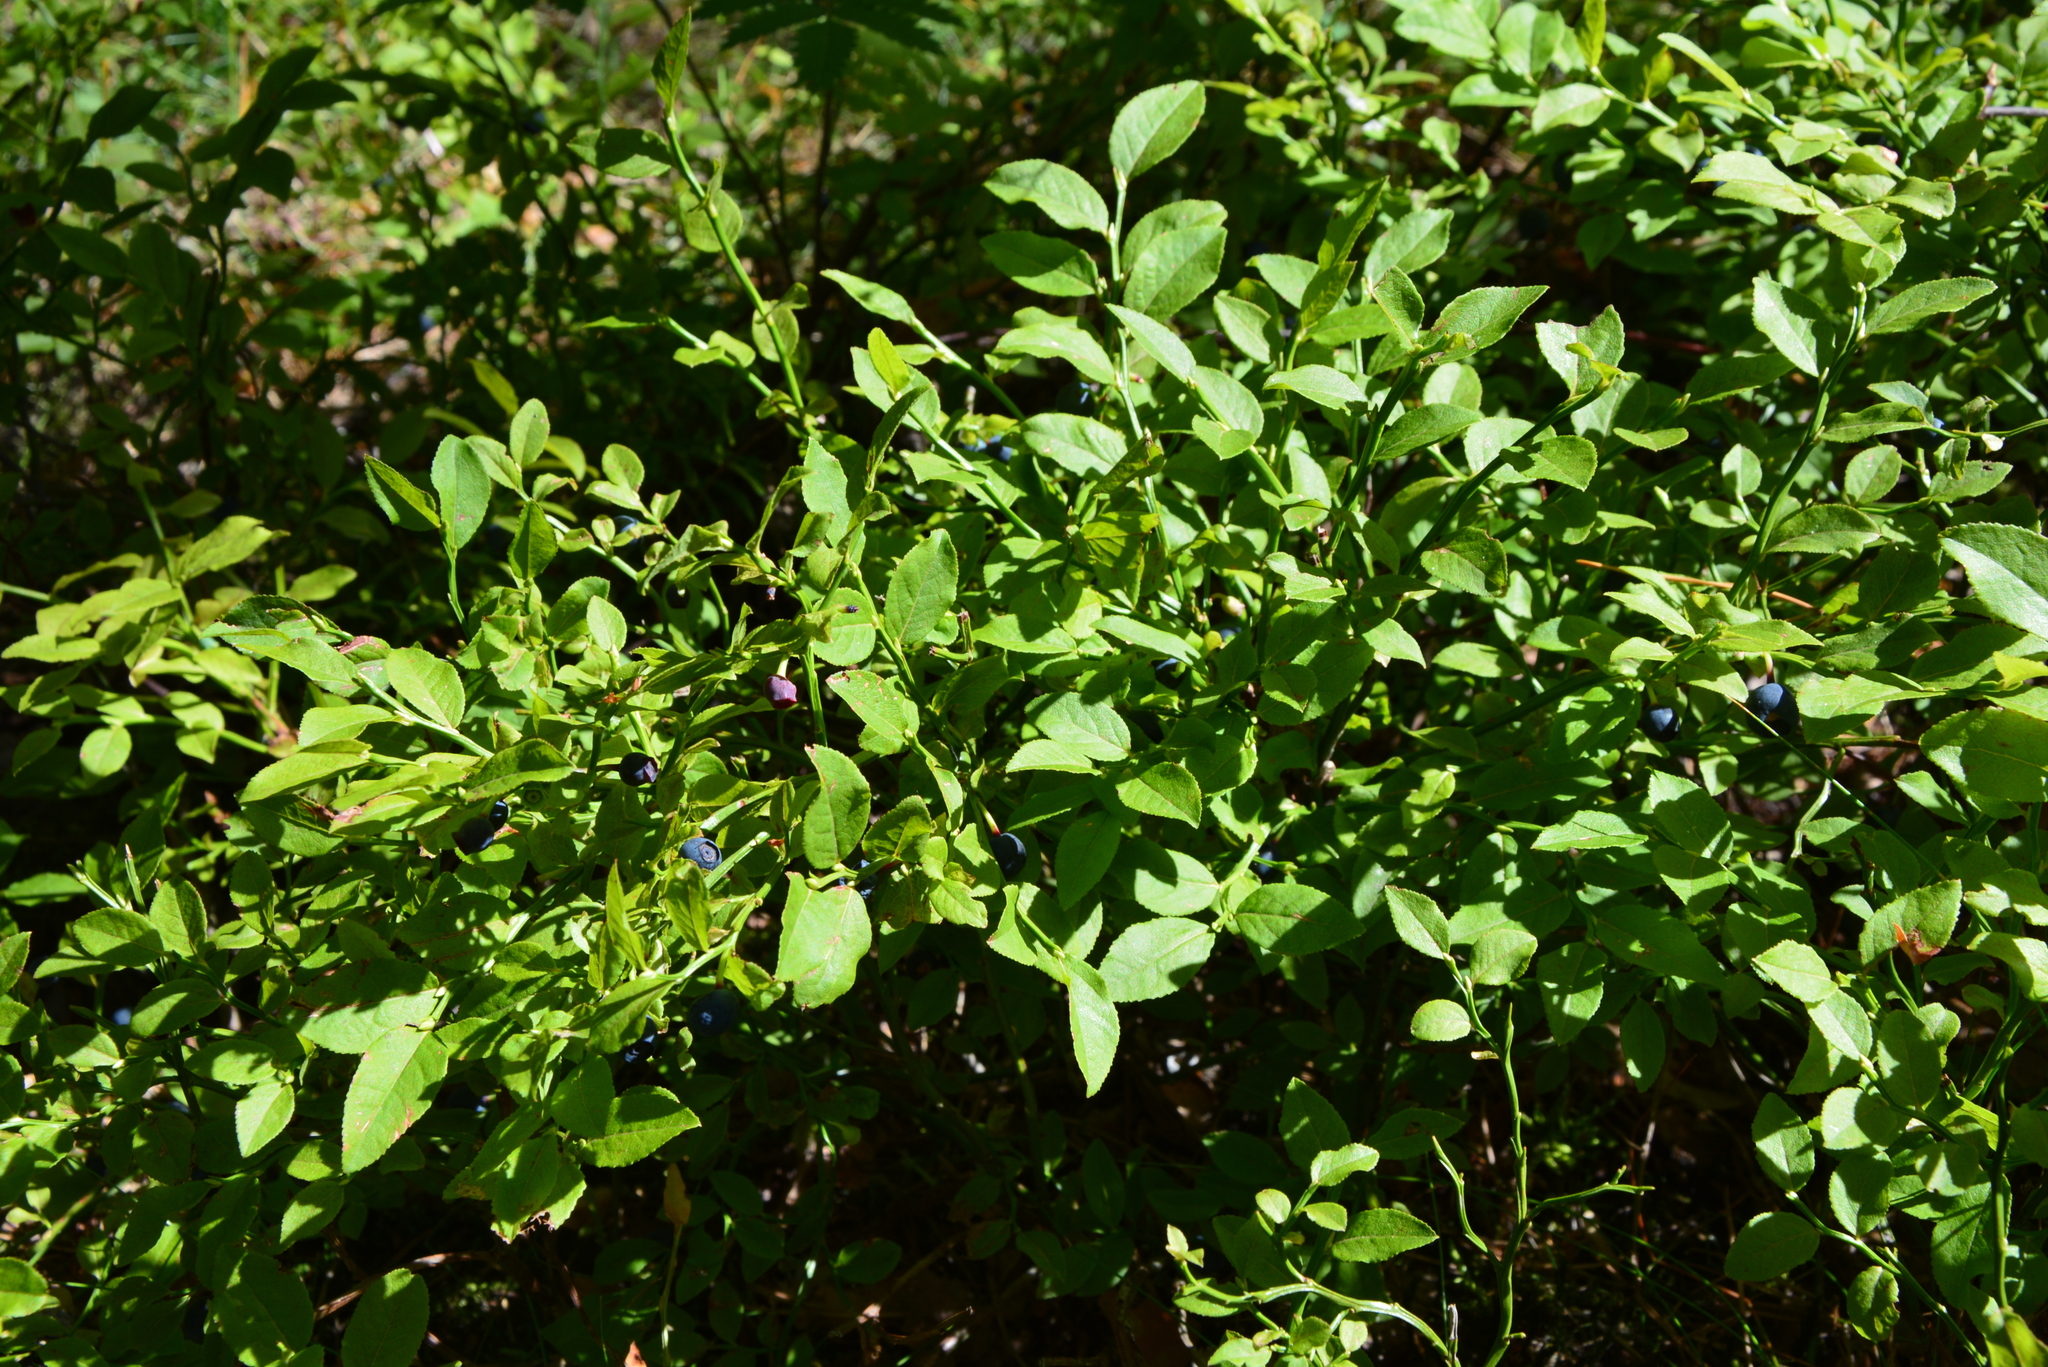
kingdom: Plantae
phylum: Tracheophyta
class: Magnoliopsida
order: Ericales
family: Ericaceae
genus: Vaccinium
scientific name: Vaccinium myrtillus
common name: Bilberry
